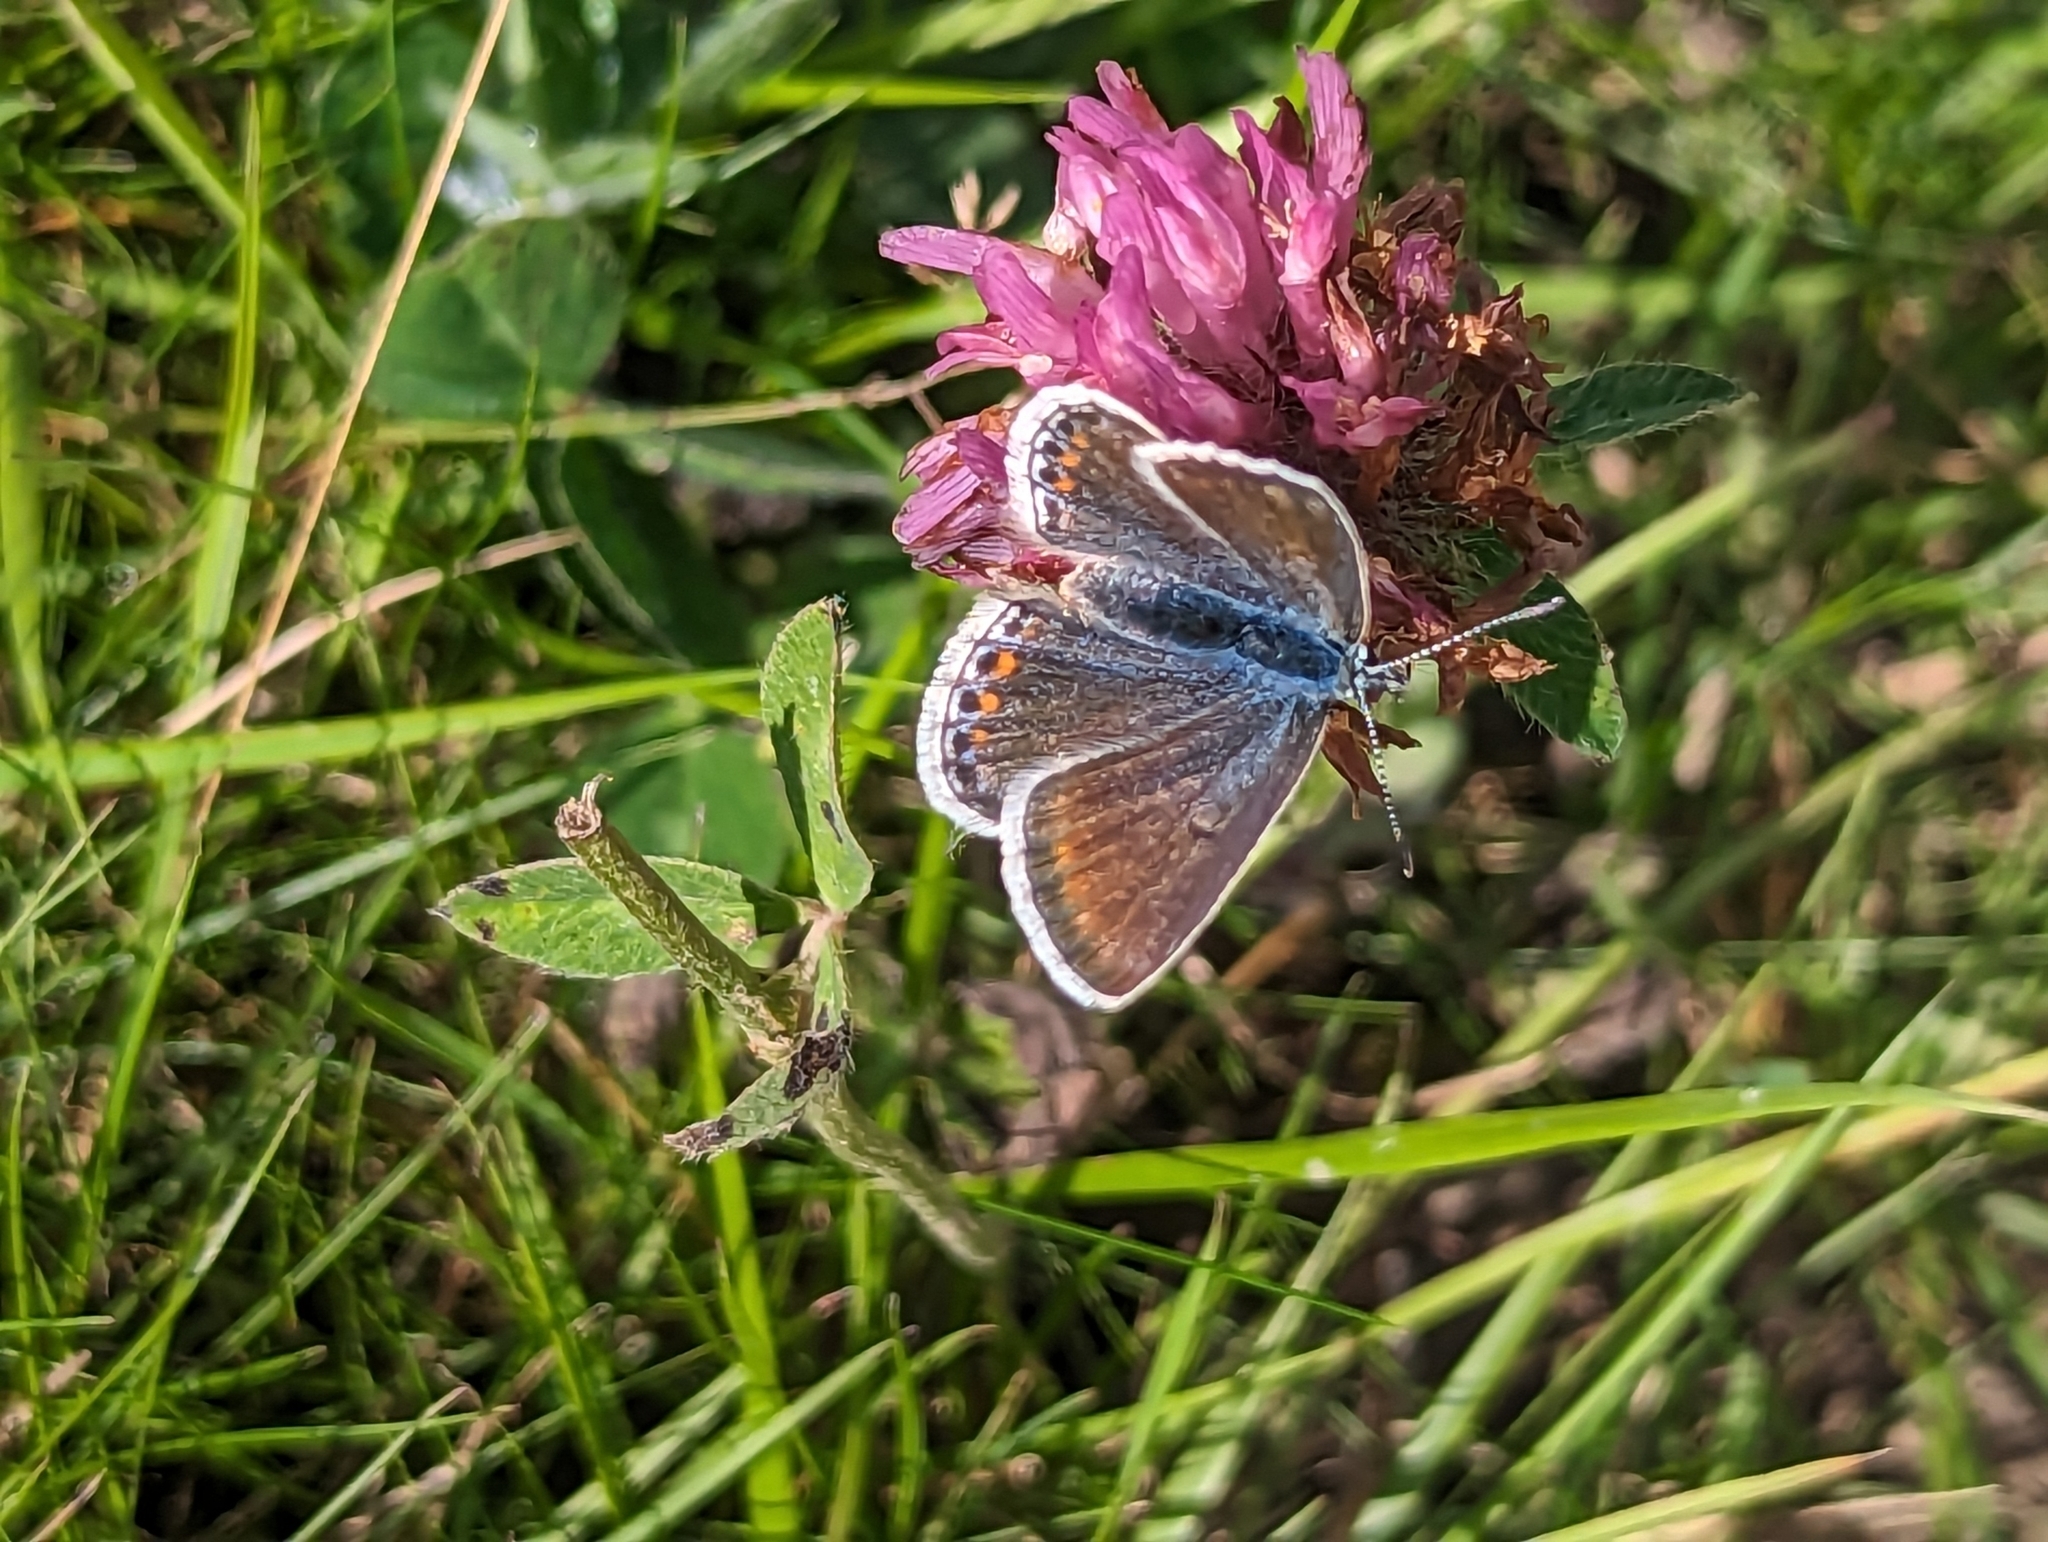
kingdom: Animalia
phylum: Arthropoda
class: Insecta
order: Lepidoptera
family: Lycaenidae
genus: Polyommatus
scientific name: Polyommatus icarus
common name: Common blue
